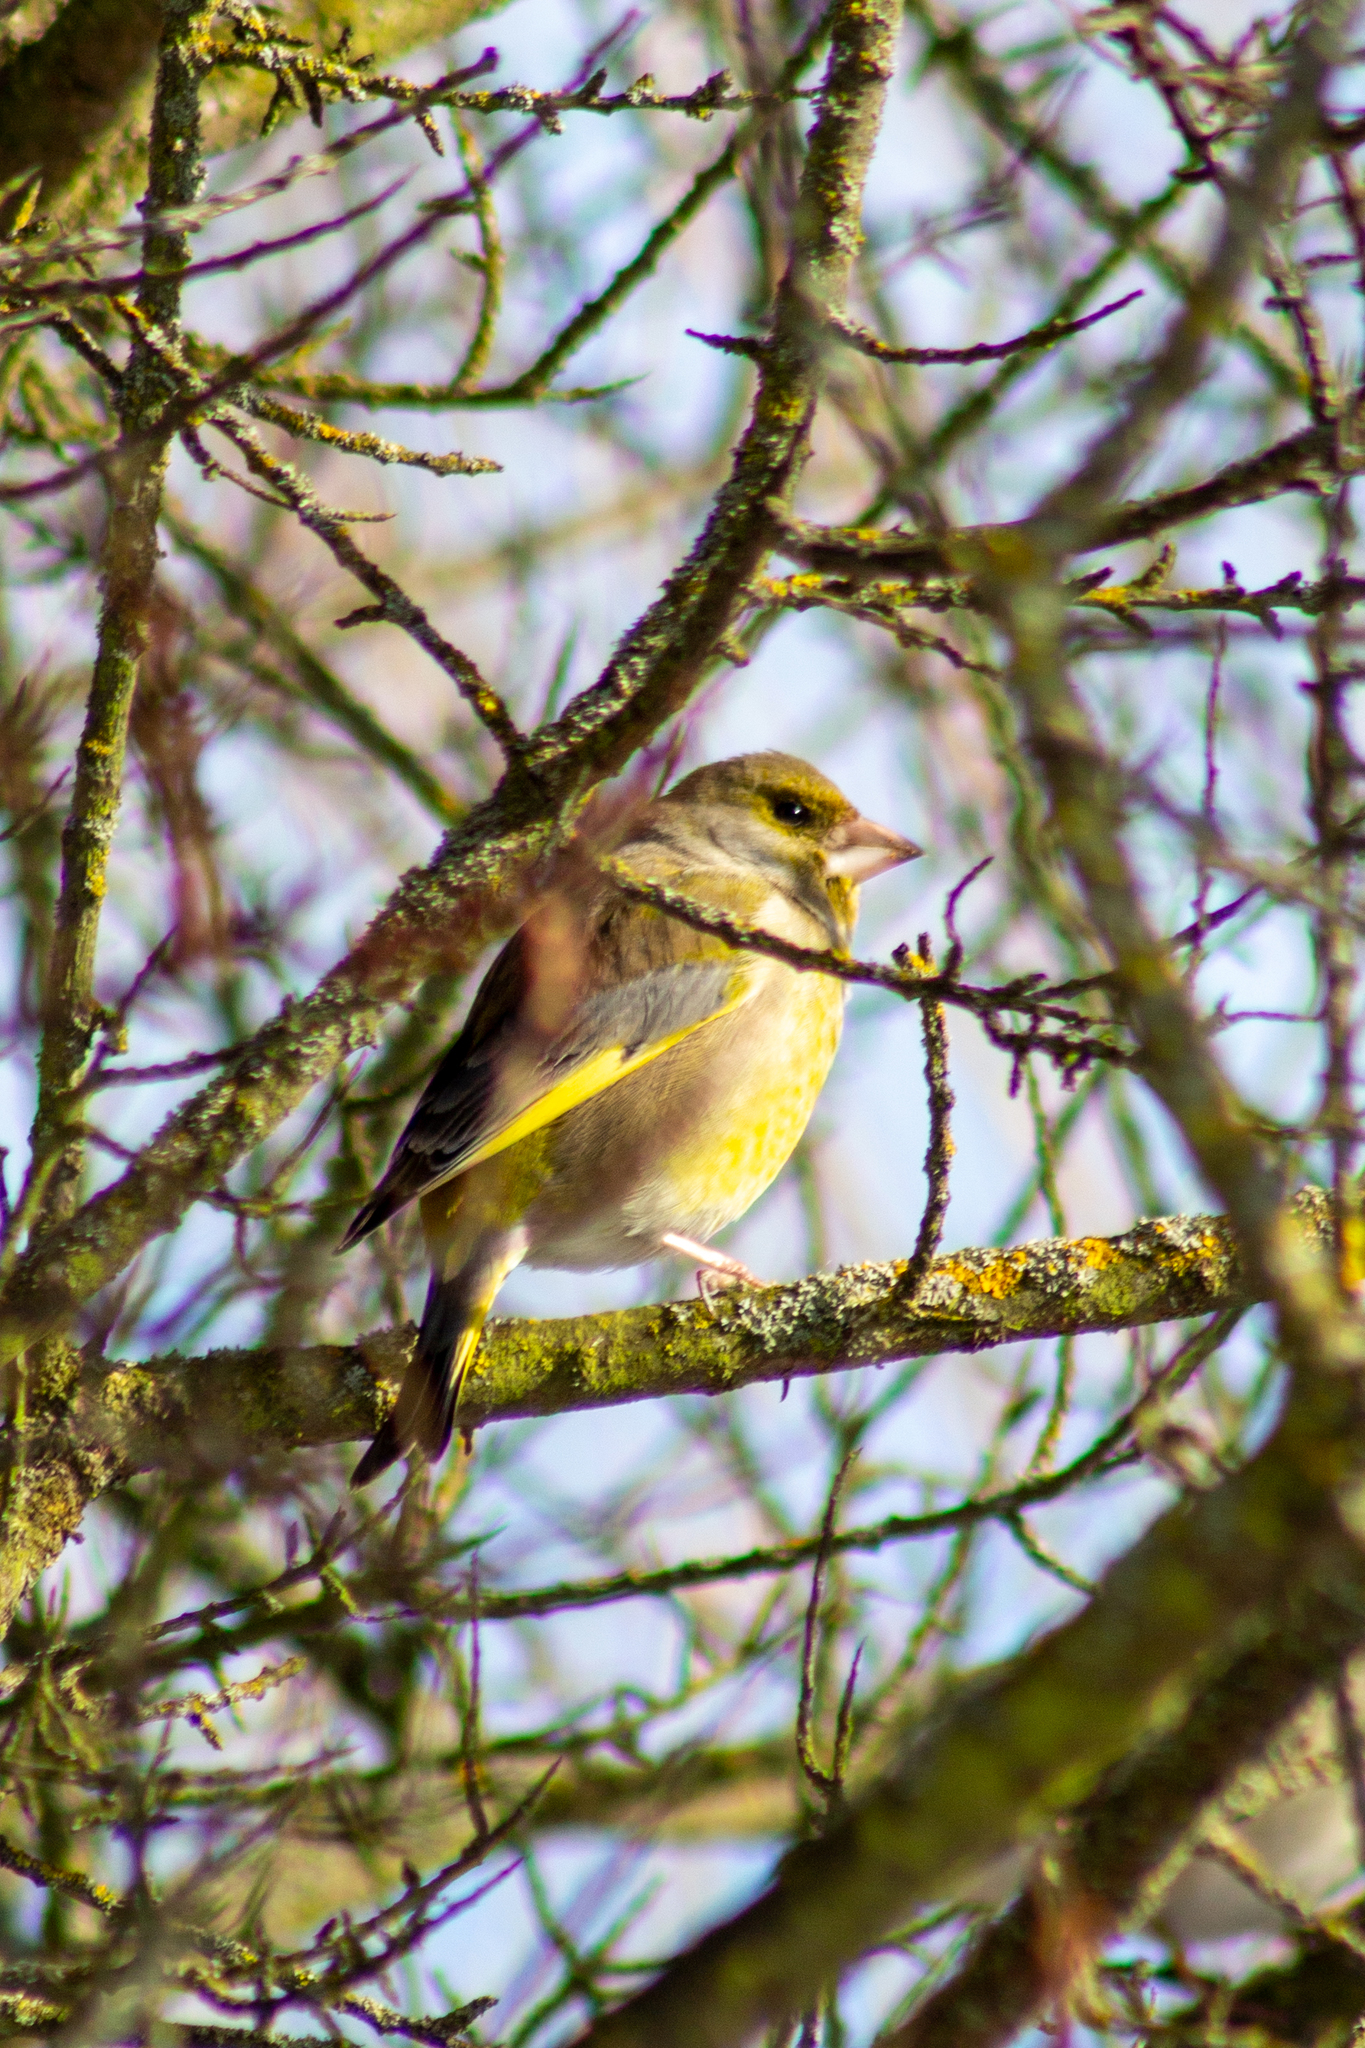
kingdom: Plantae
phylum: Tracheophyta
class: Liliopsida
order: Poales
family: Poaceae
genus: Chloris
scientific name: Chloris chloris
